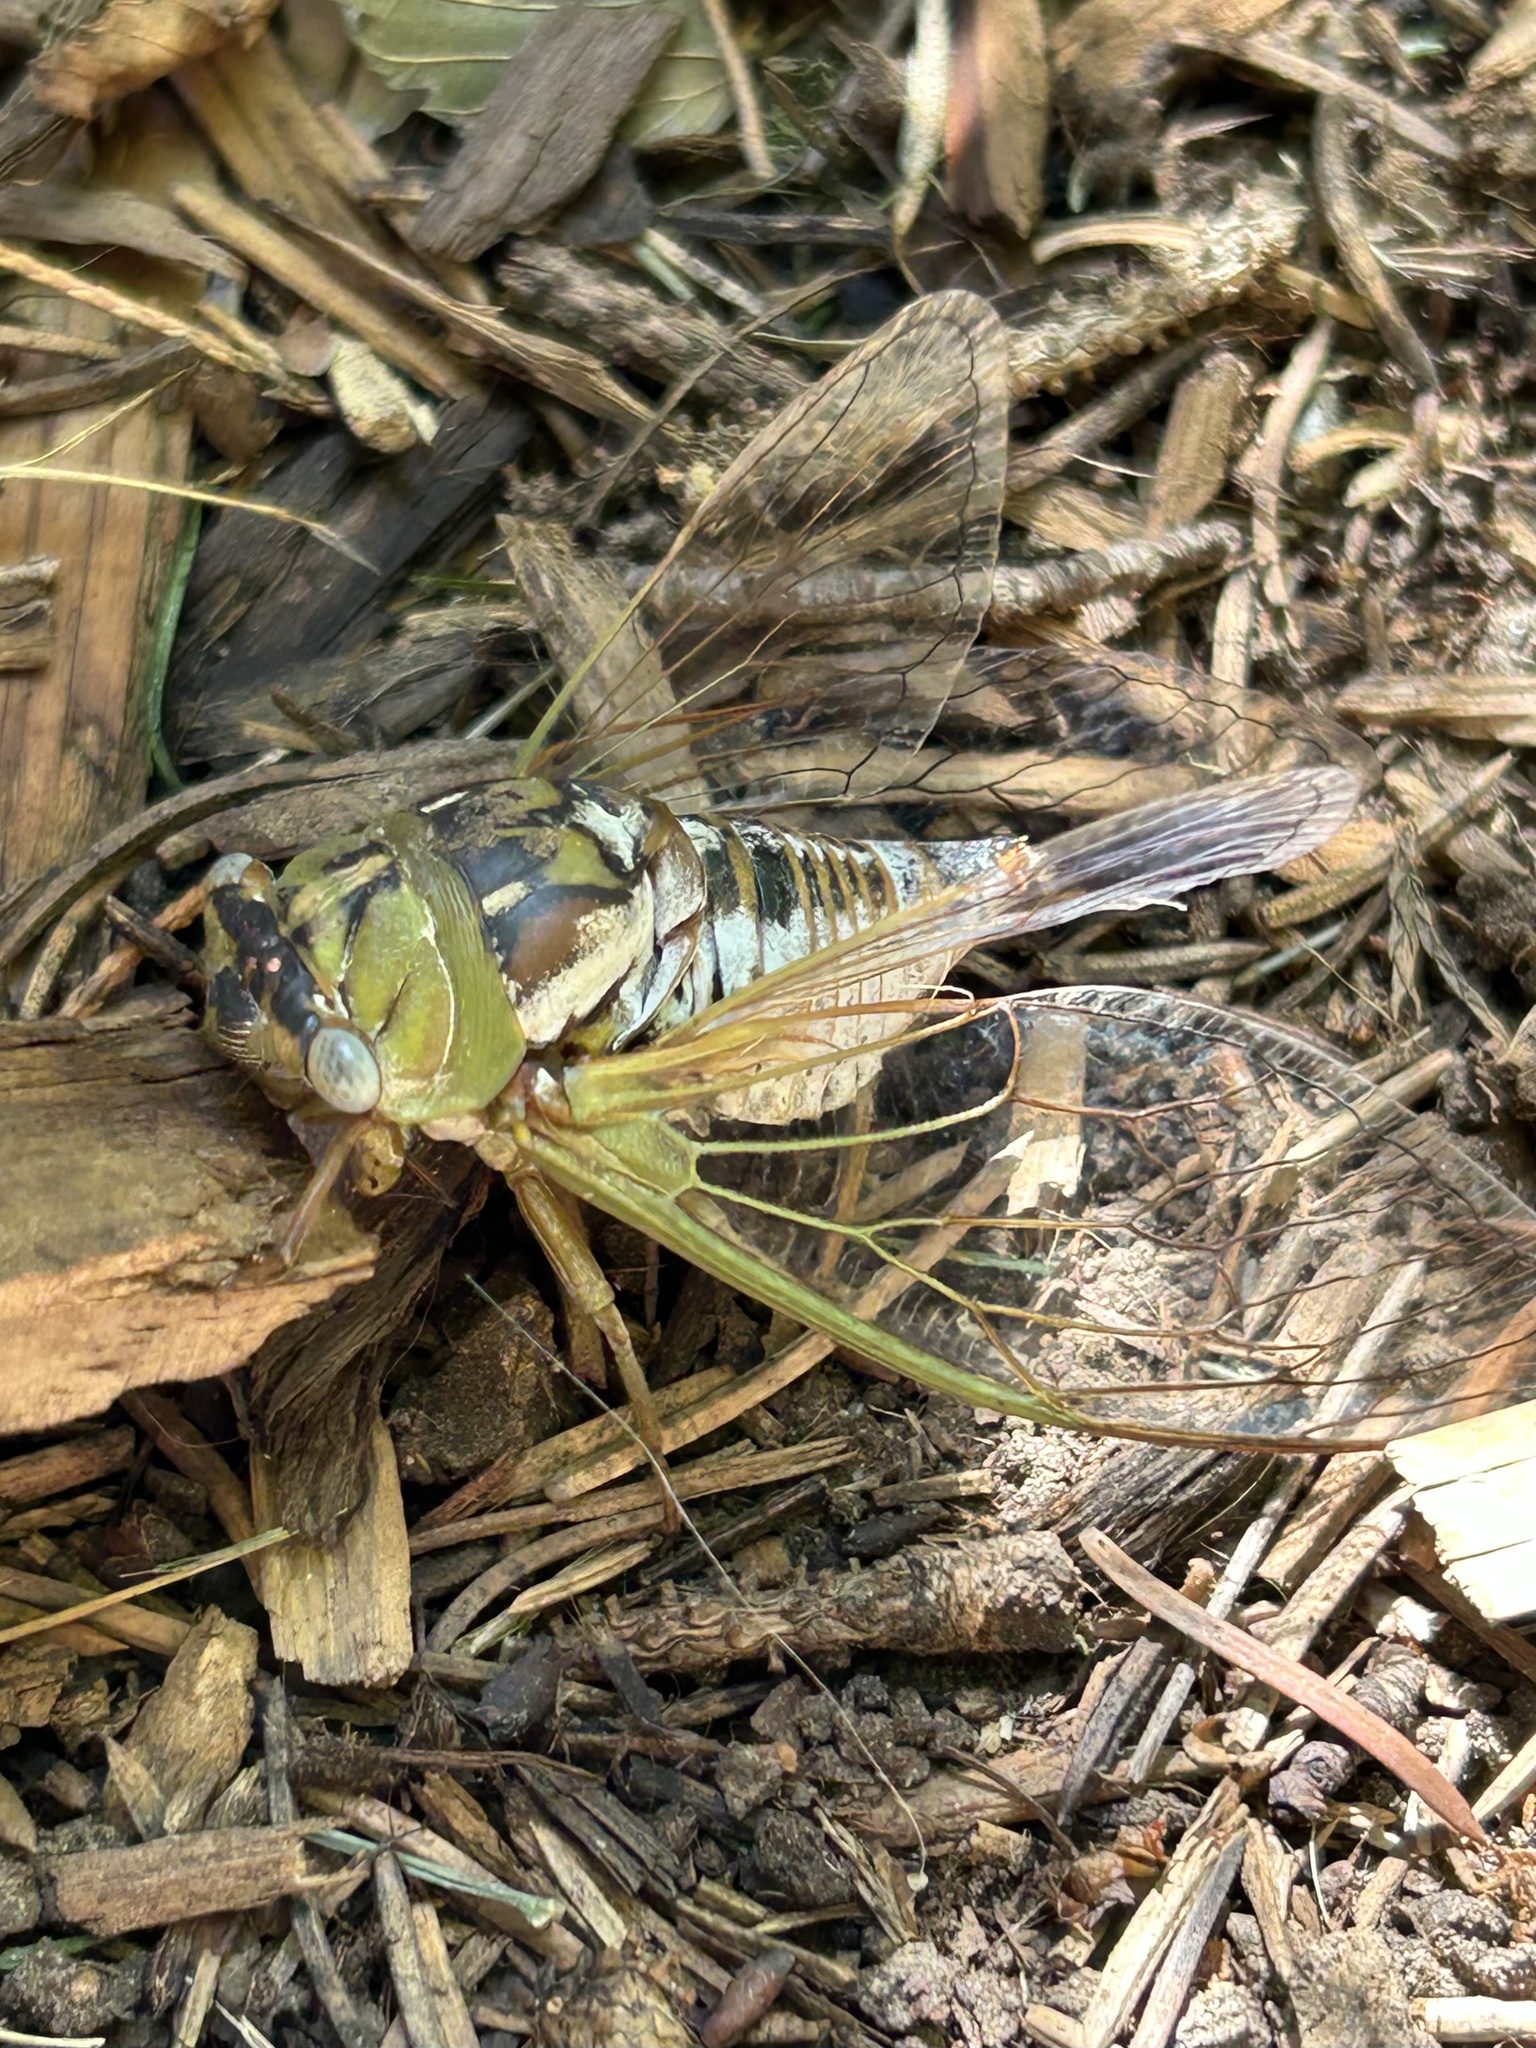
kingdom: Animalia
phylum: Arthropoda
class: Insecta
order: Hemiptera
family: Cicadidae
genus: Megatibicen
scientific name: Megatibicen dealbatus
